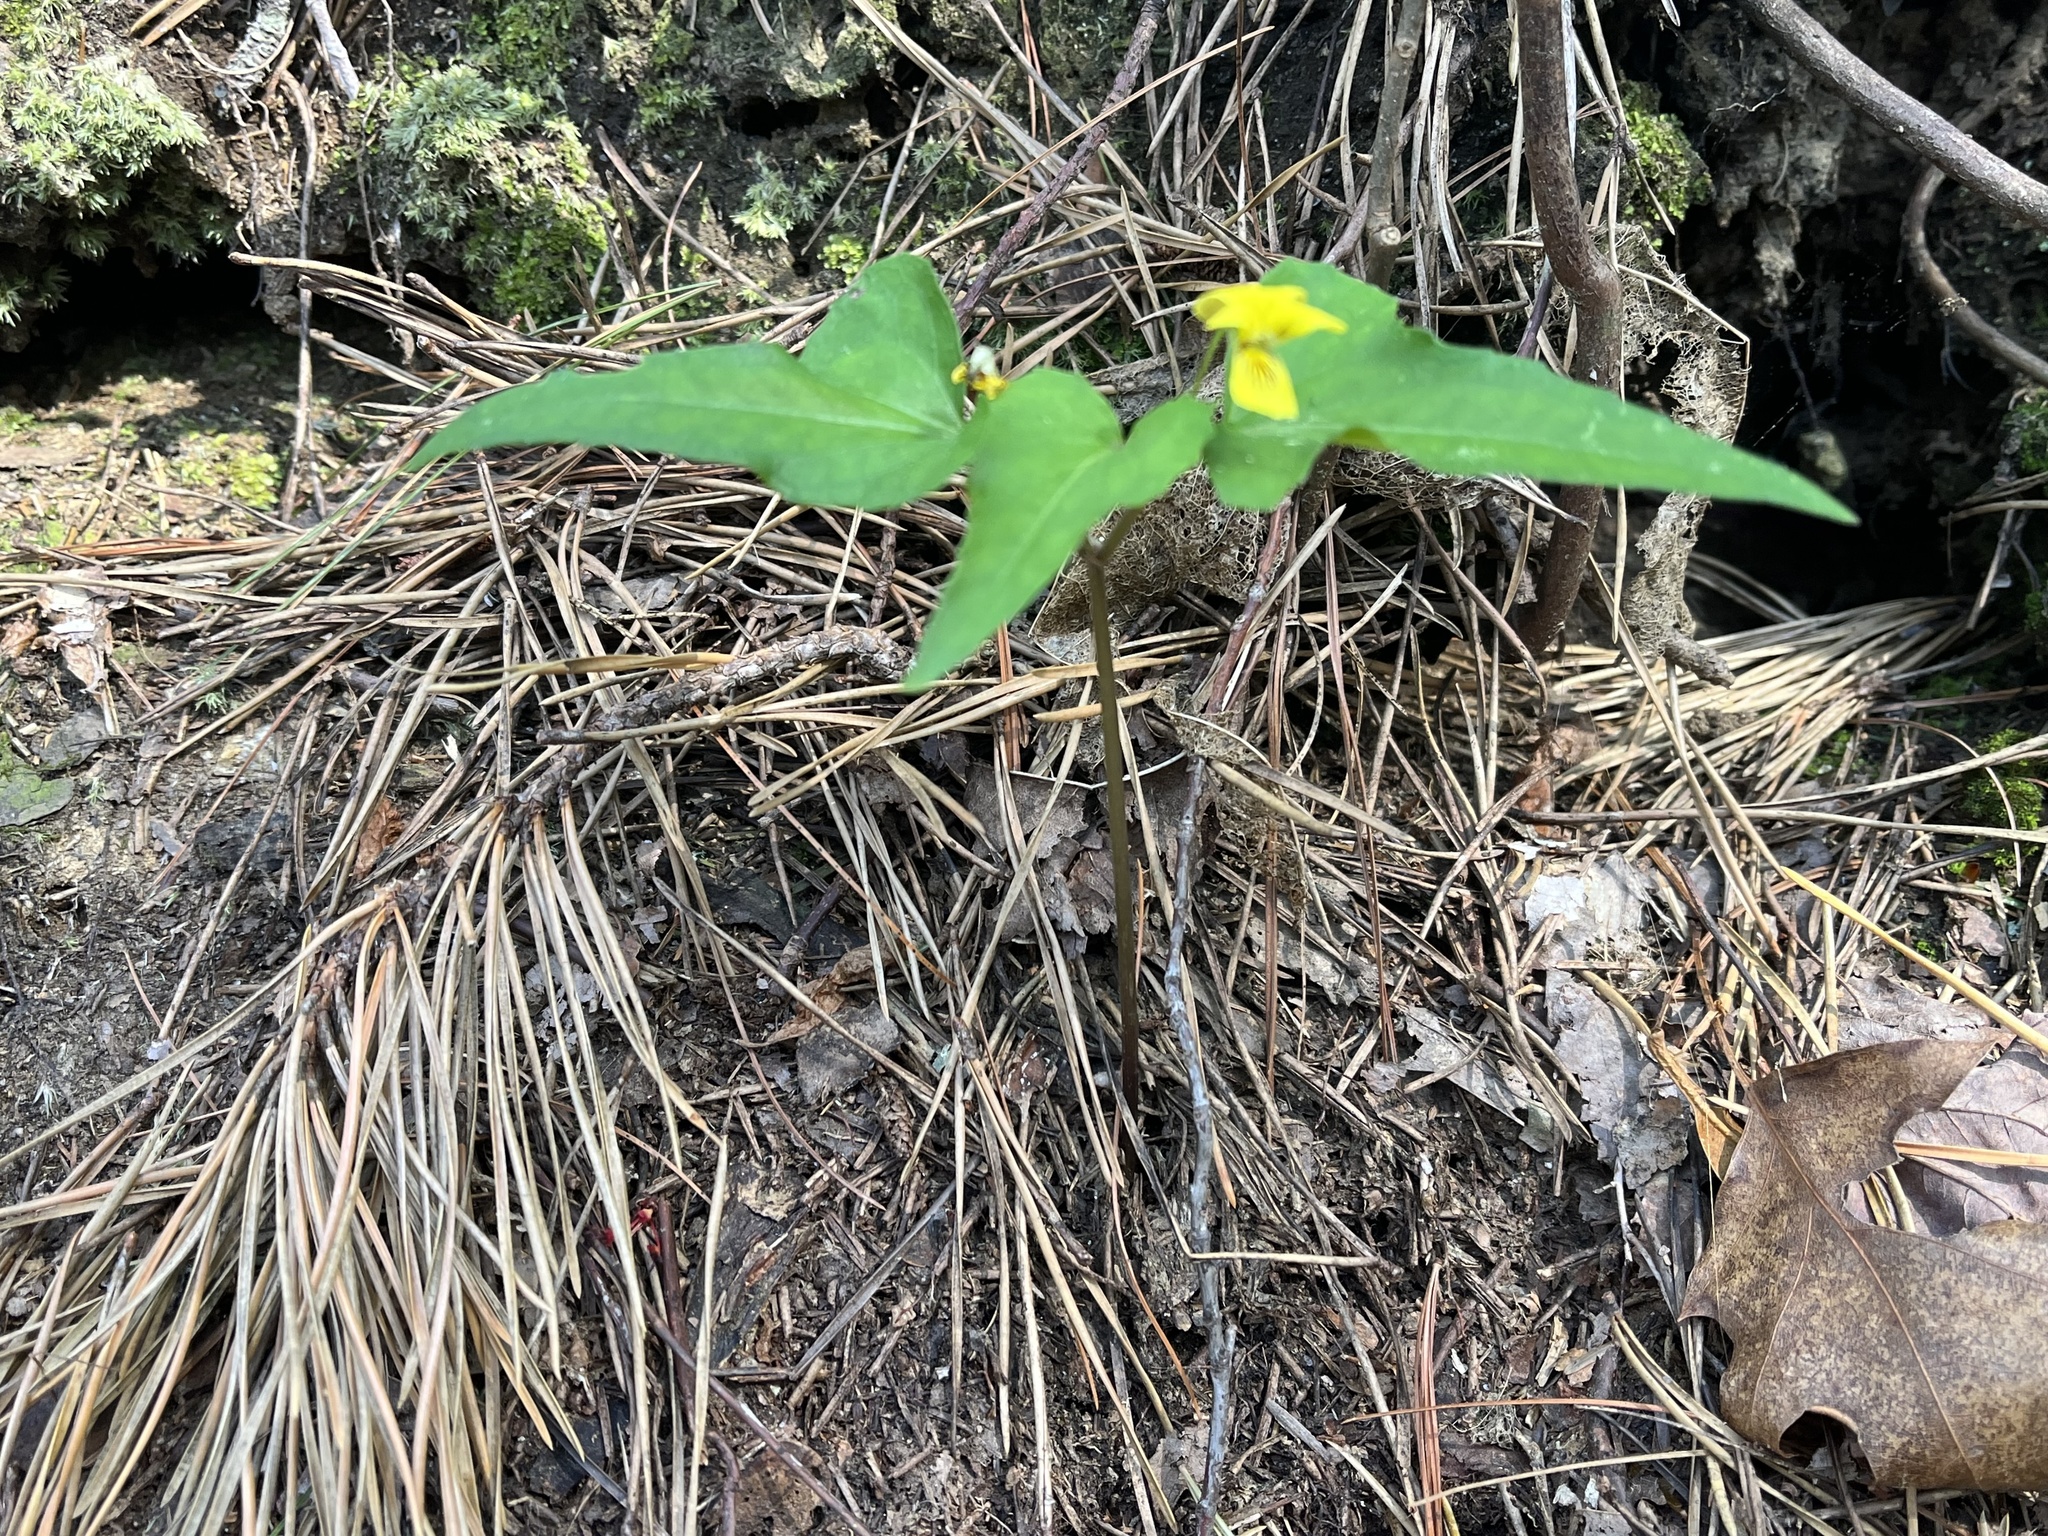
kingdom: Plantae
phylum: Tracheophyta
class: Magnoliopsida
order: Malpighiales
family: Violaceae
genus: Viola
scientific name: Viola hastata
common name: Spear-leaf violet
